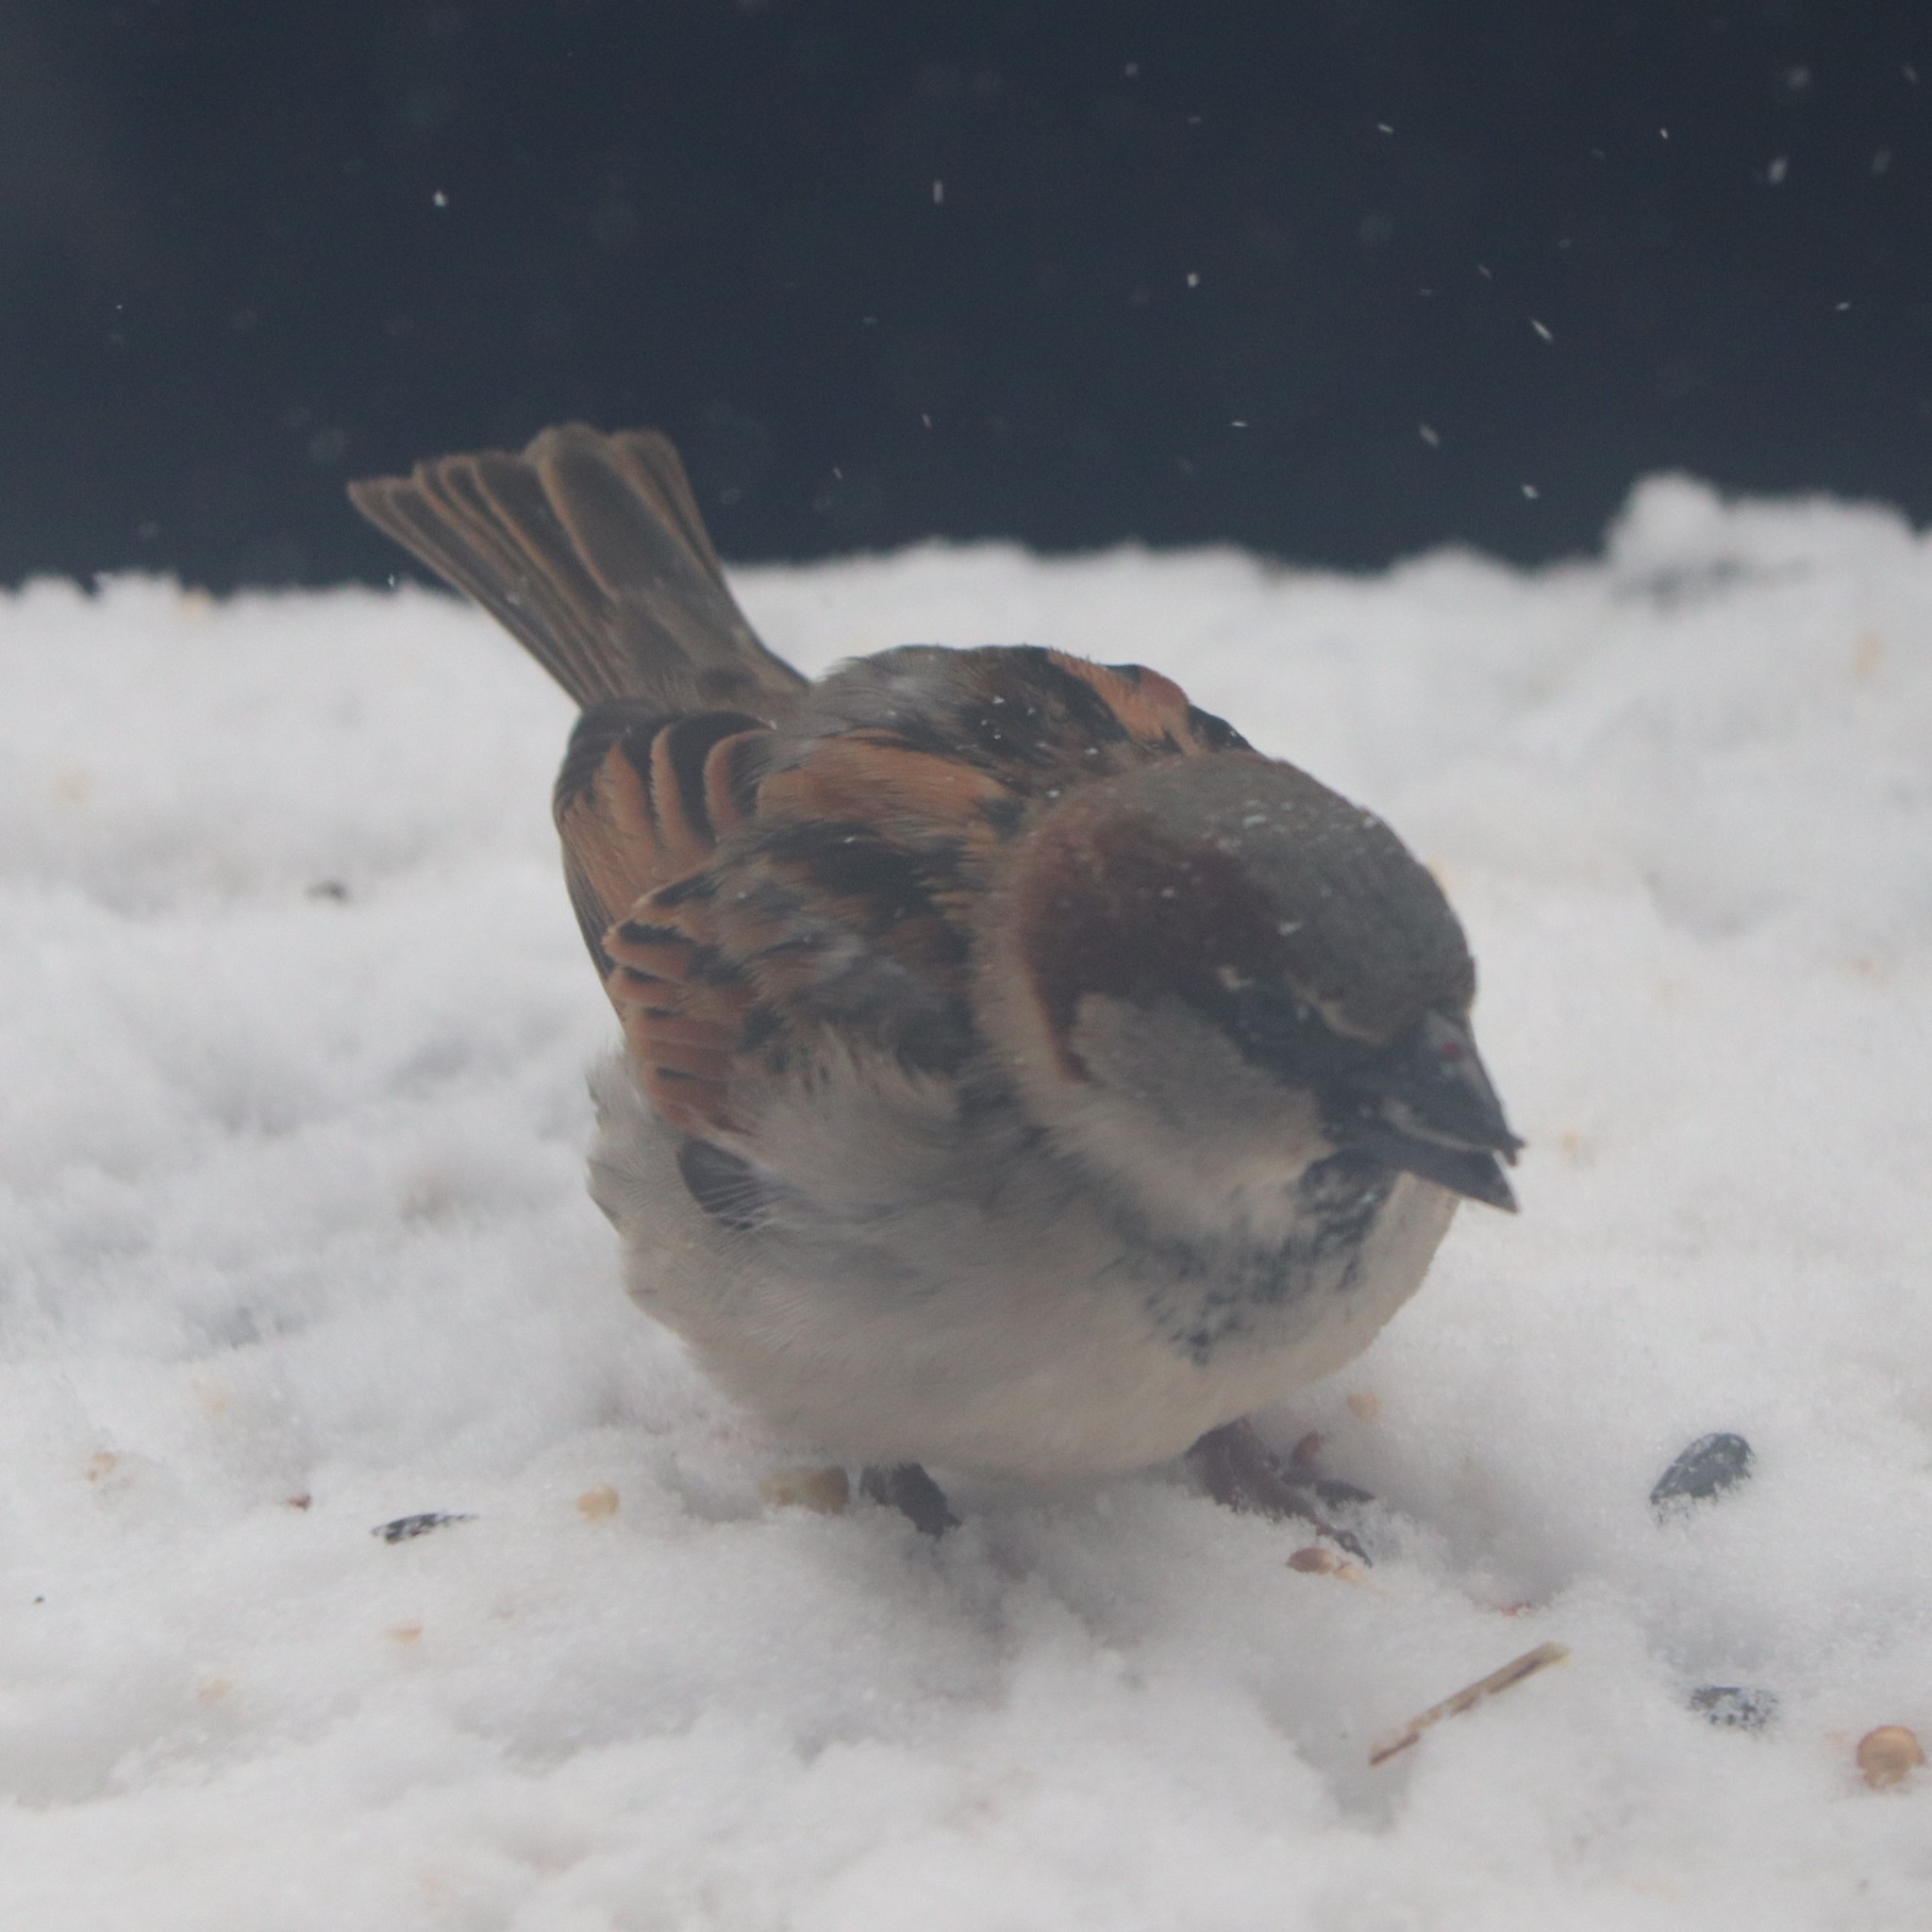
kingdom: Animalia
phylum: Chordata
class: Aves
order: Passeriformes
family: Passeridae
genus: Passer
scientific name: Passer domesticus
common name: House sparrow
